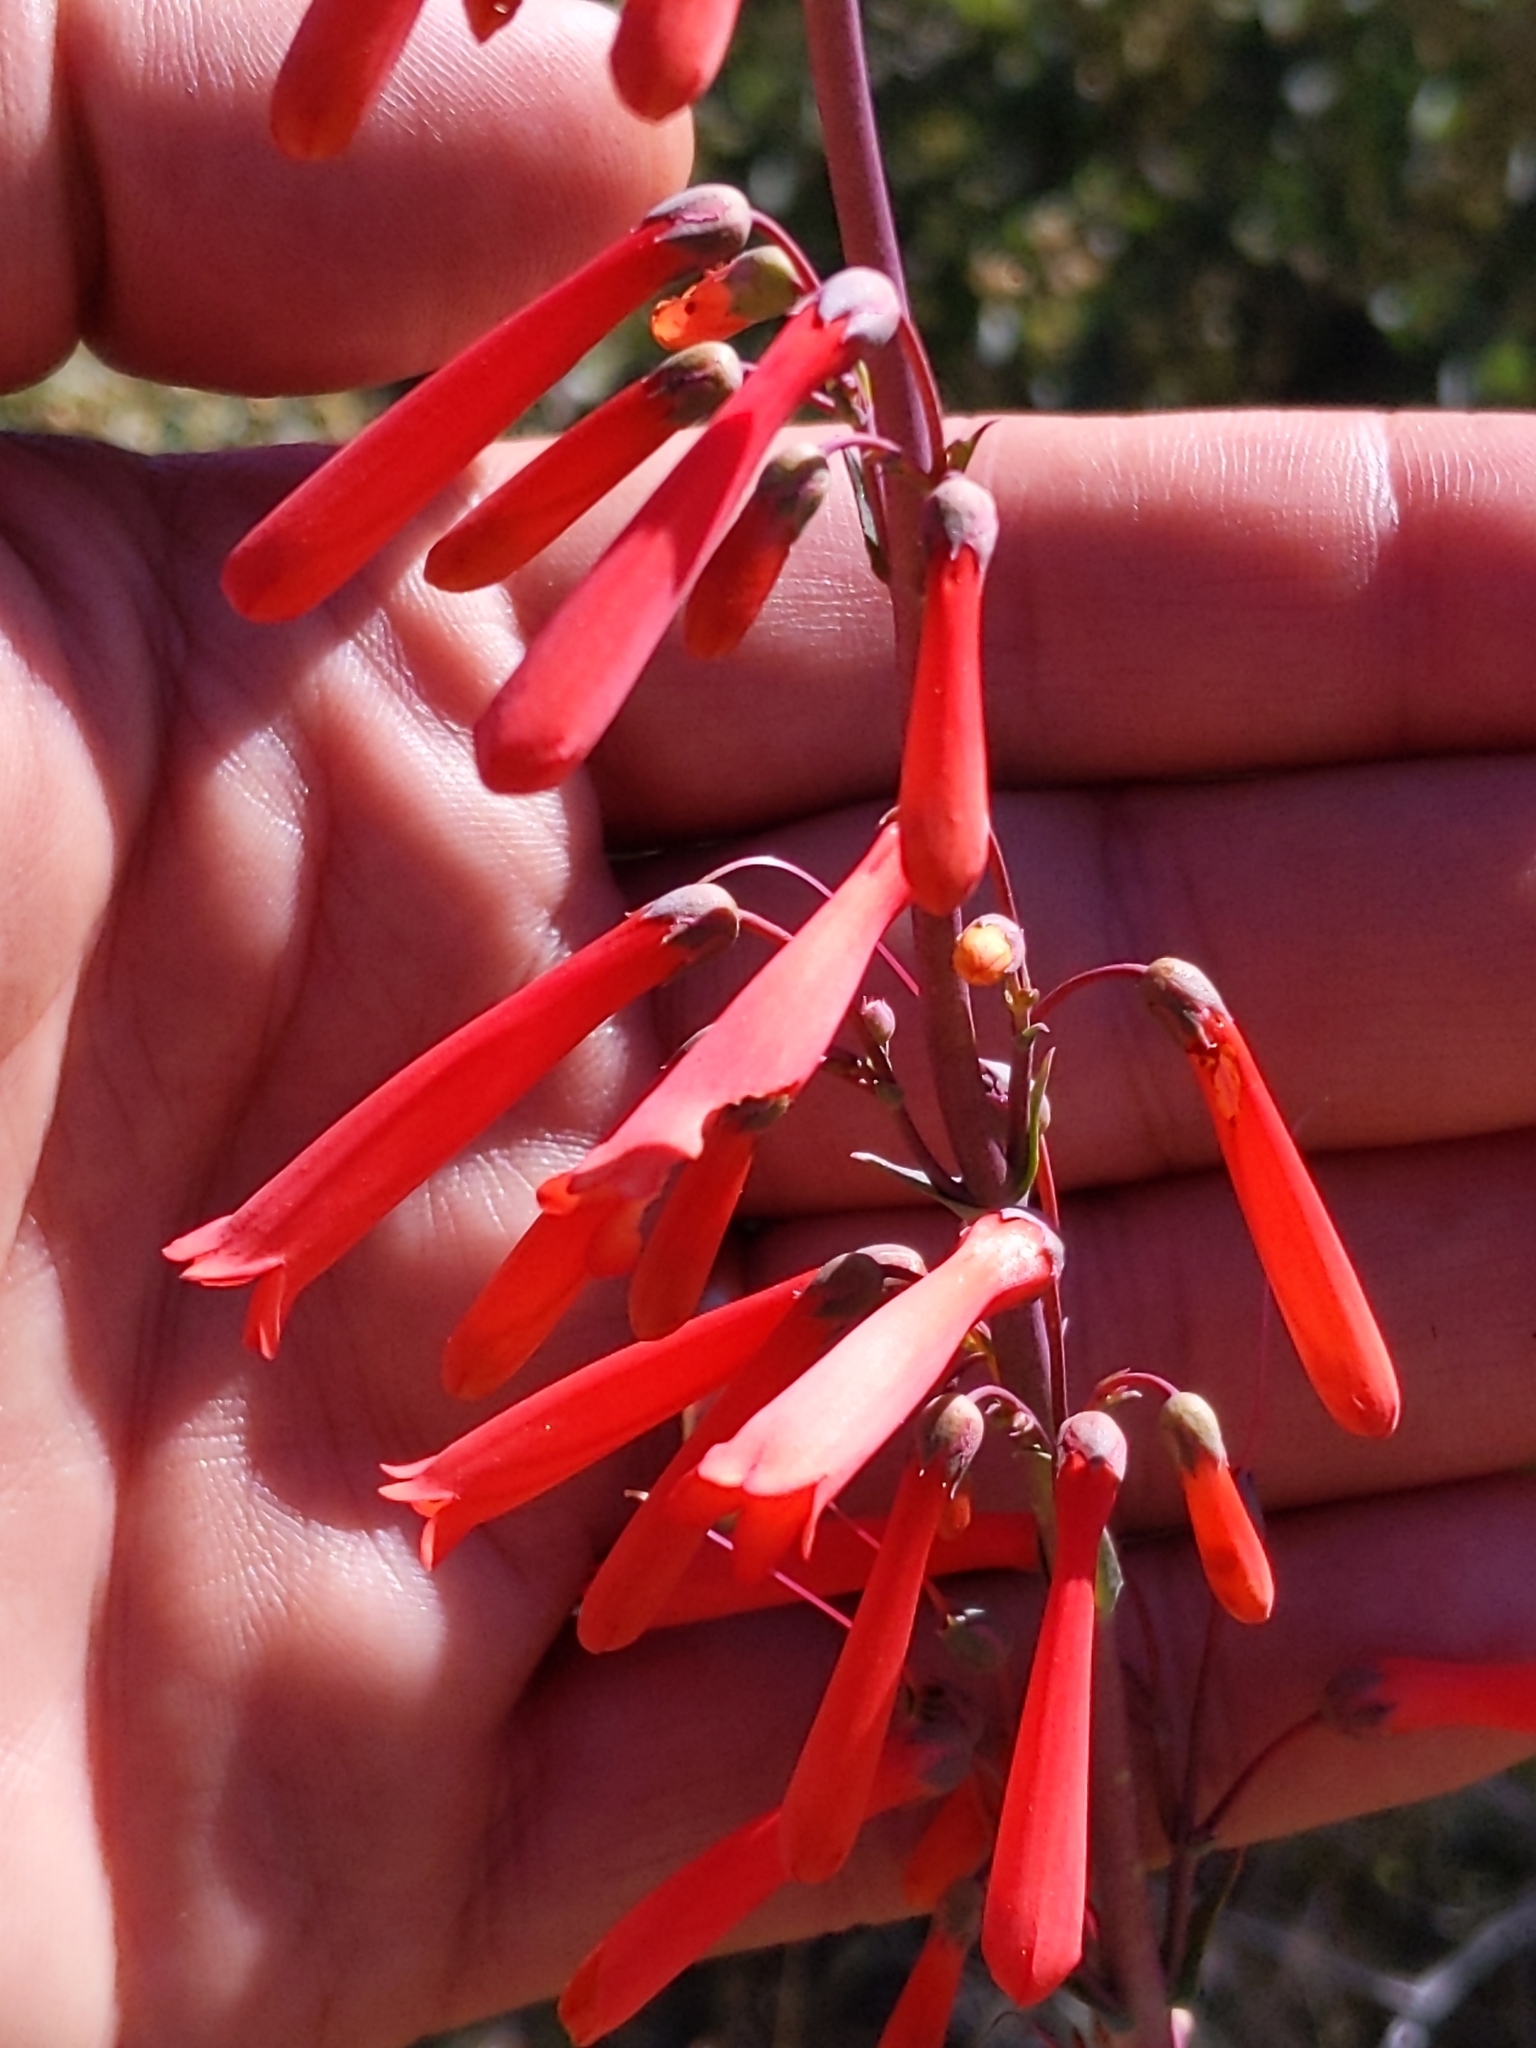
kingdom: Plantae
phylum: Tracheophyta
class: Magnoliopsida
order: Lamiales
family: Plantaginaceae
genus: Penstemon
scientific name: Penstemon centranthifolius
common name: Scarlet bugler
